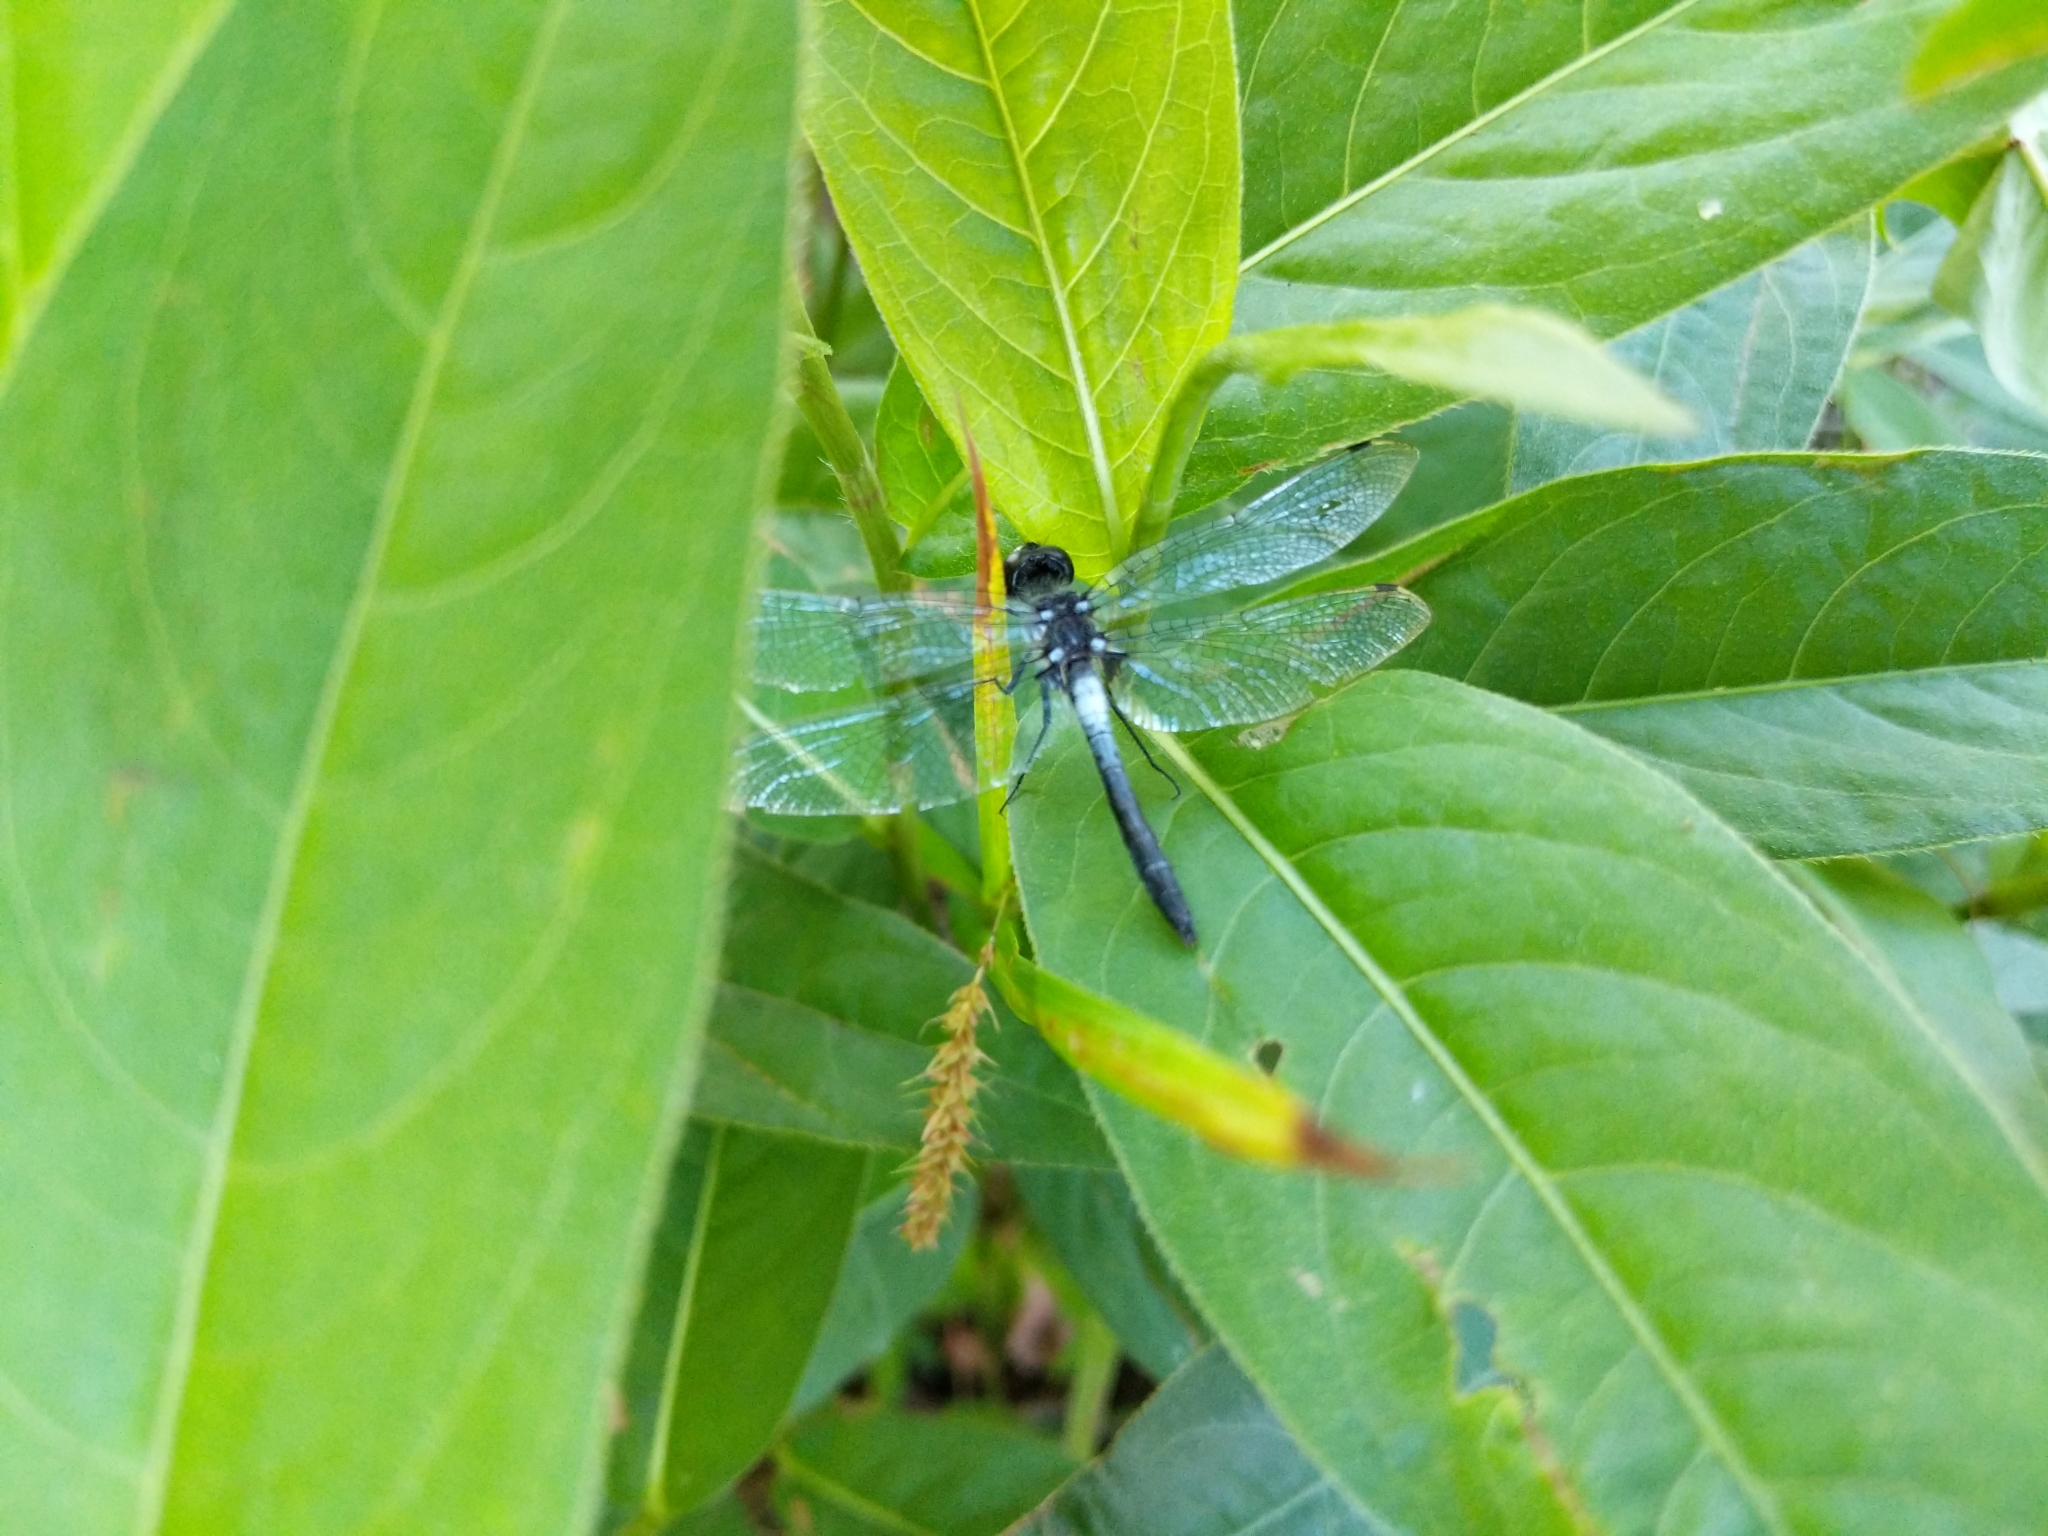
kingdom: Animalia
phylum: Arthropoda
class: Insecta
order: Odonata
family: Libellulidae
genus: Leucorrhinia
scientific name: Leucorrhinia frigida
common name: Frosted whiteface
